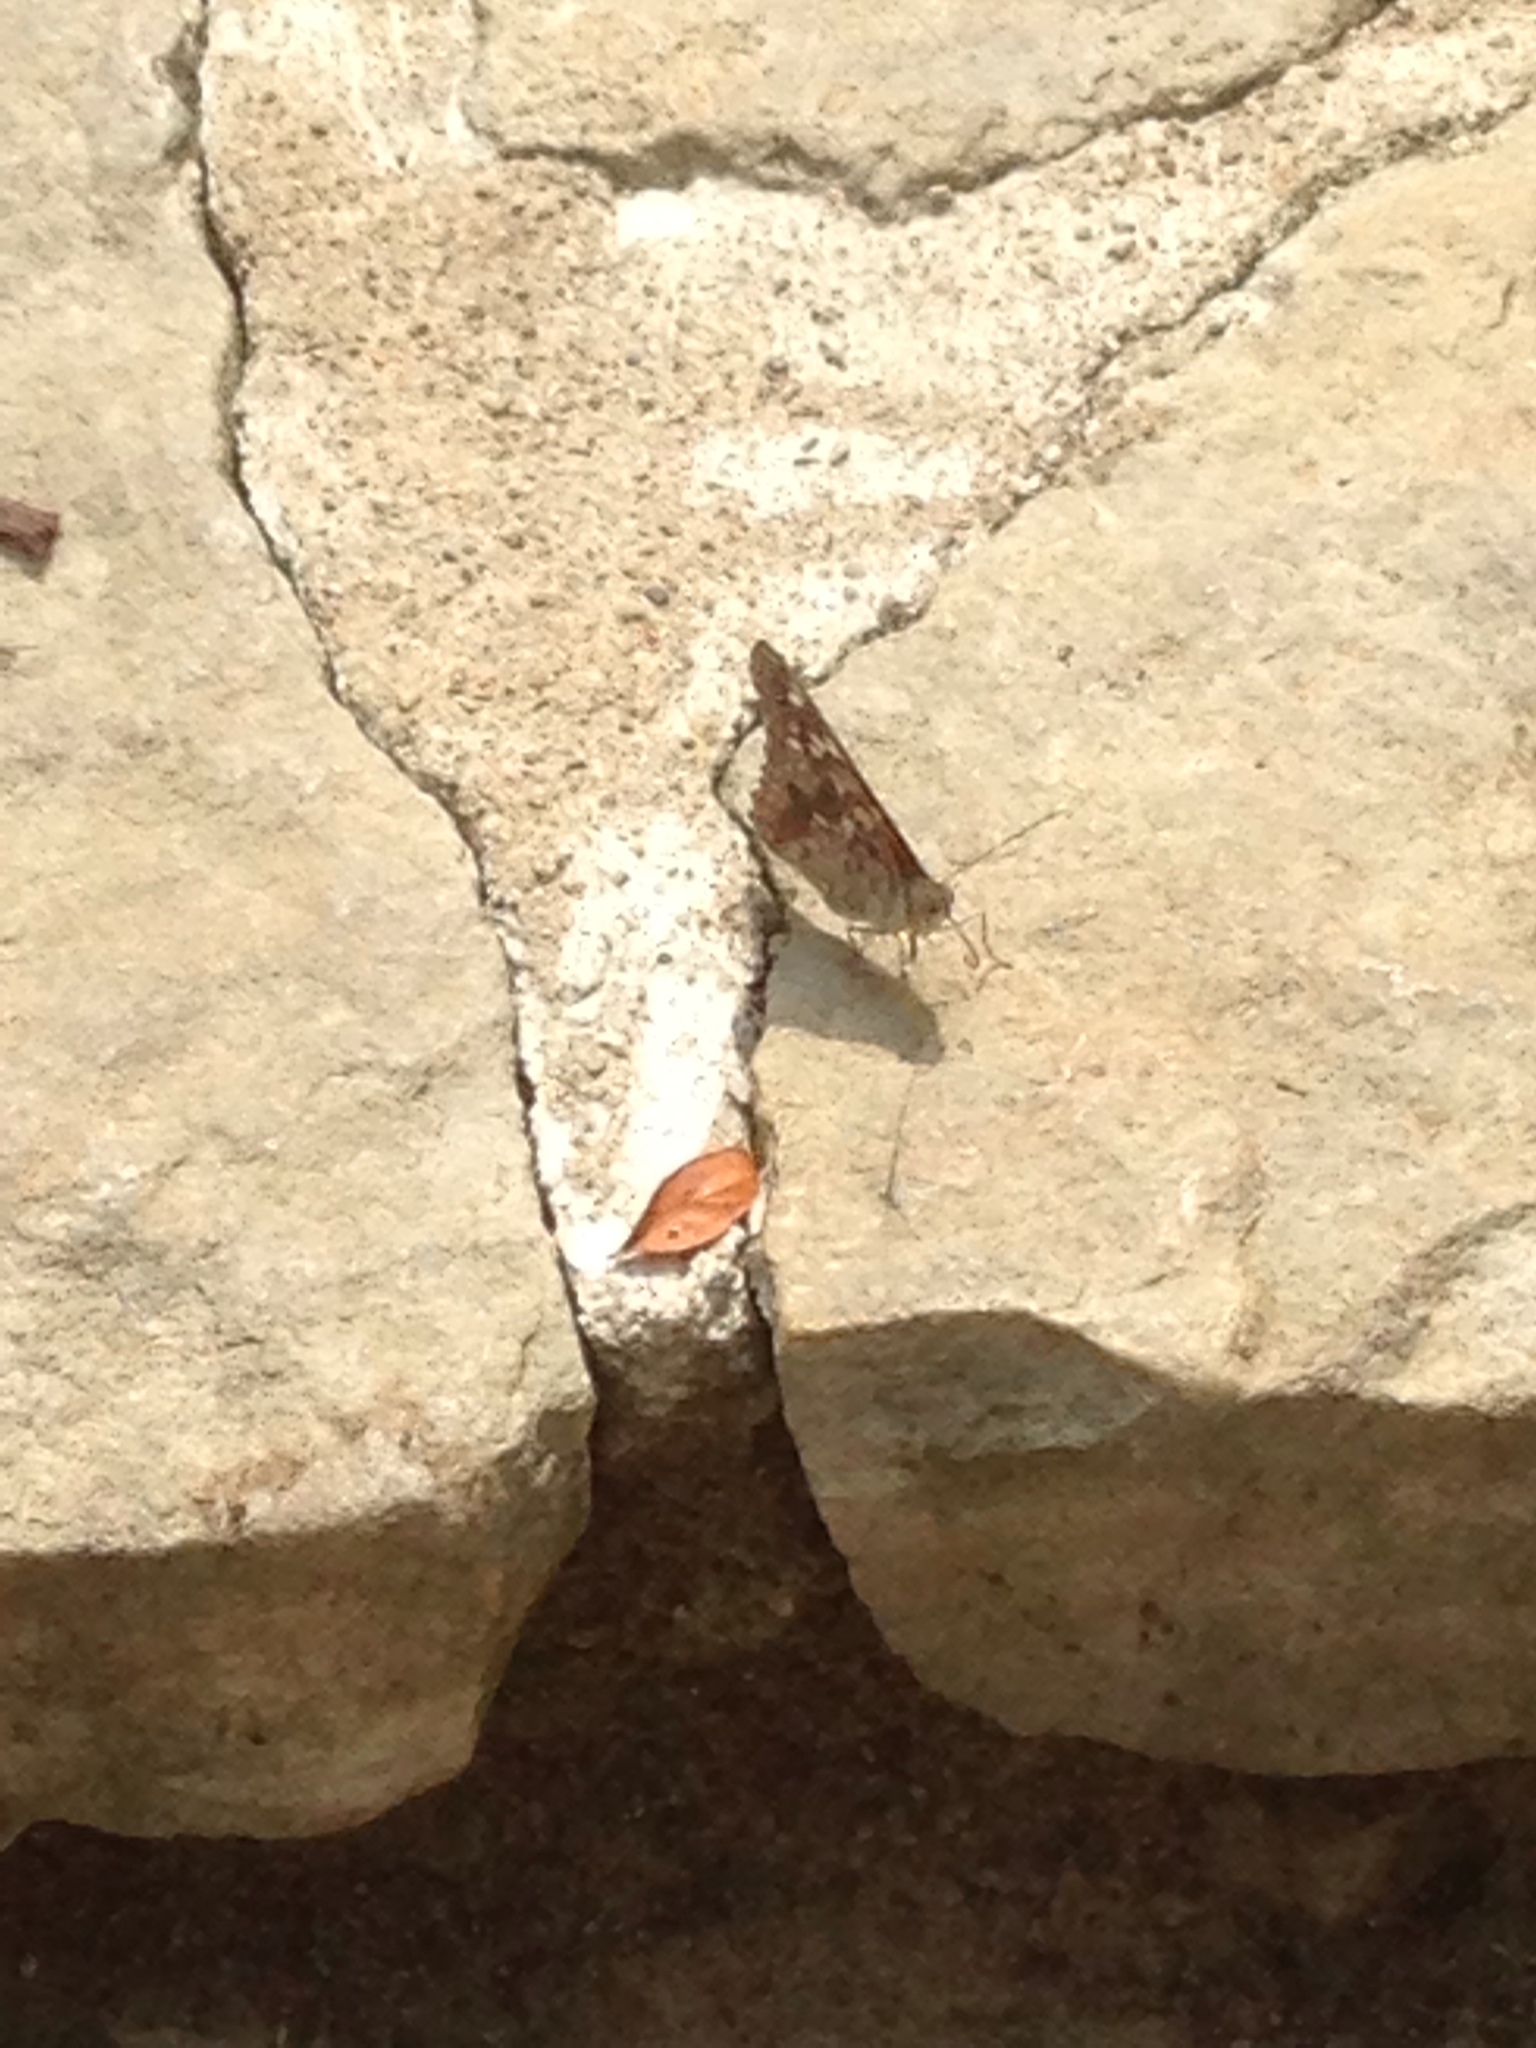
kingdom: Animalia
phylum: Arthropoda
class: Insecta
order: Lepidoptera
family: Nymphalidae
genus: Asterocampa
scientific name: Asterocampa celtis
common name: Hackberry emperor
